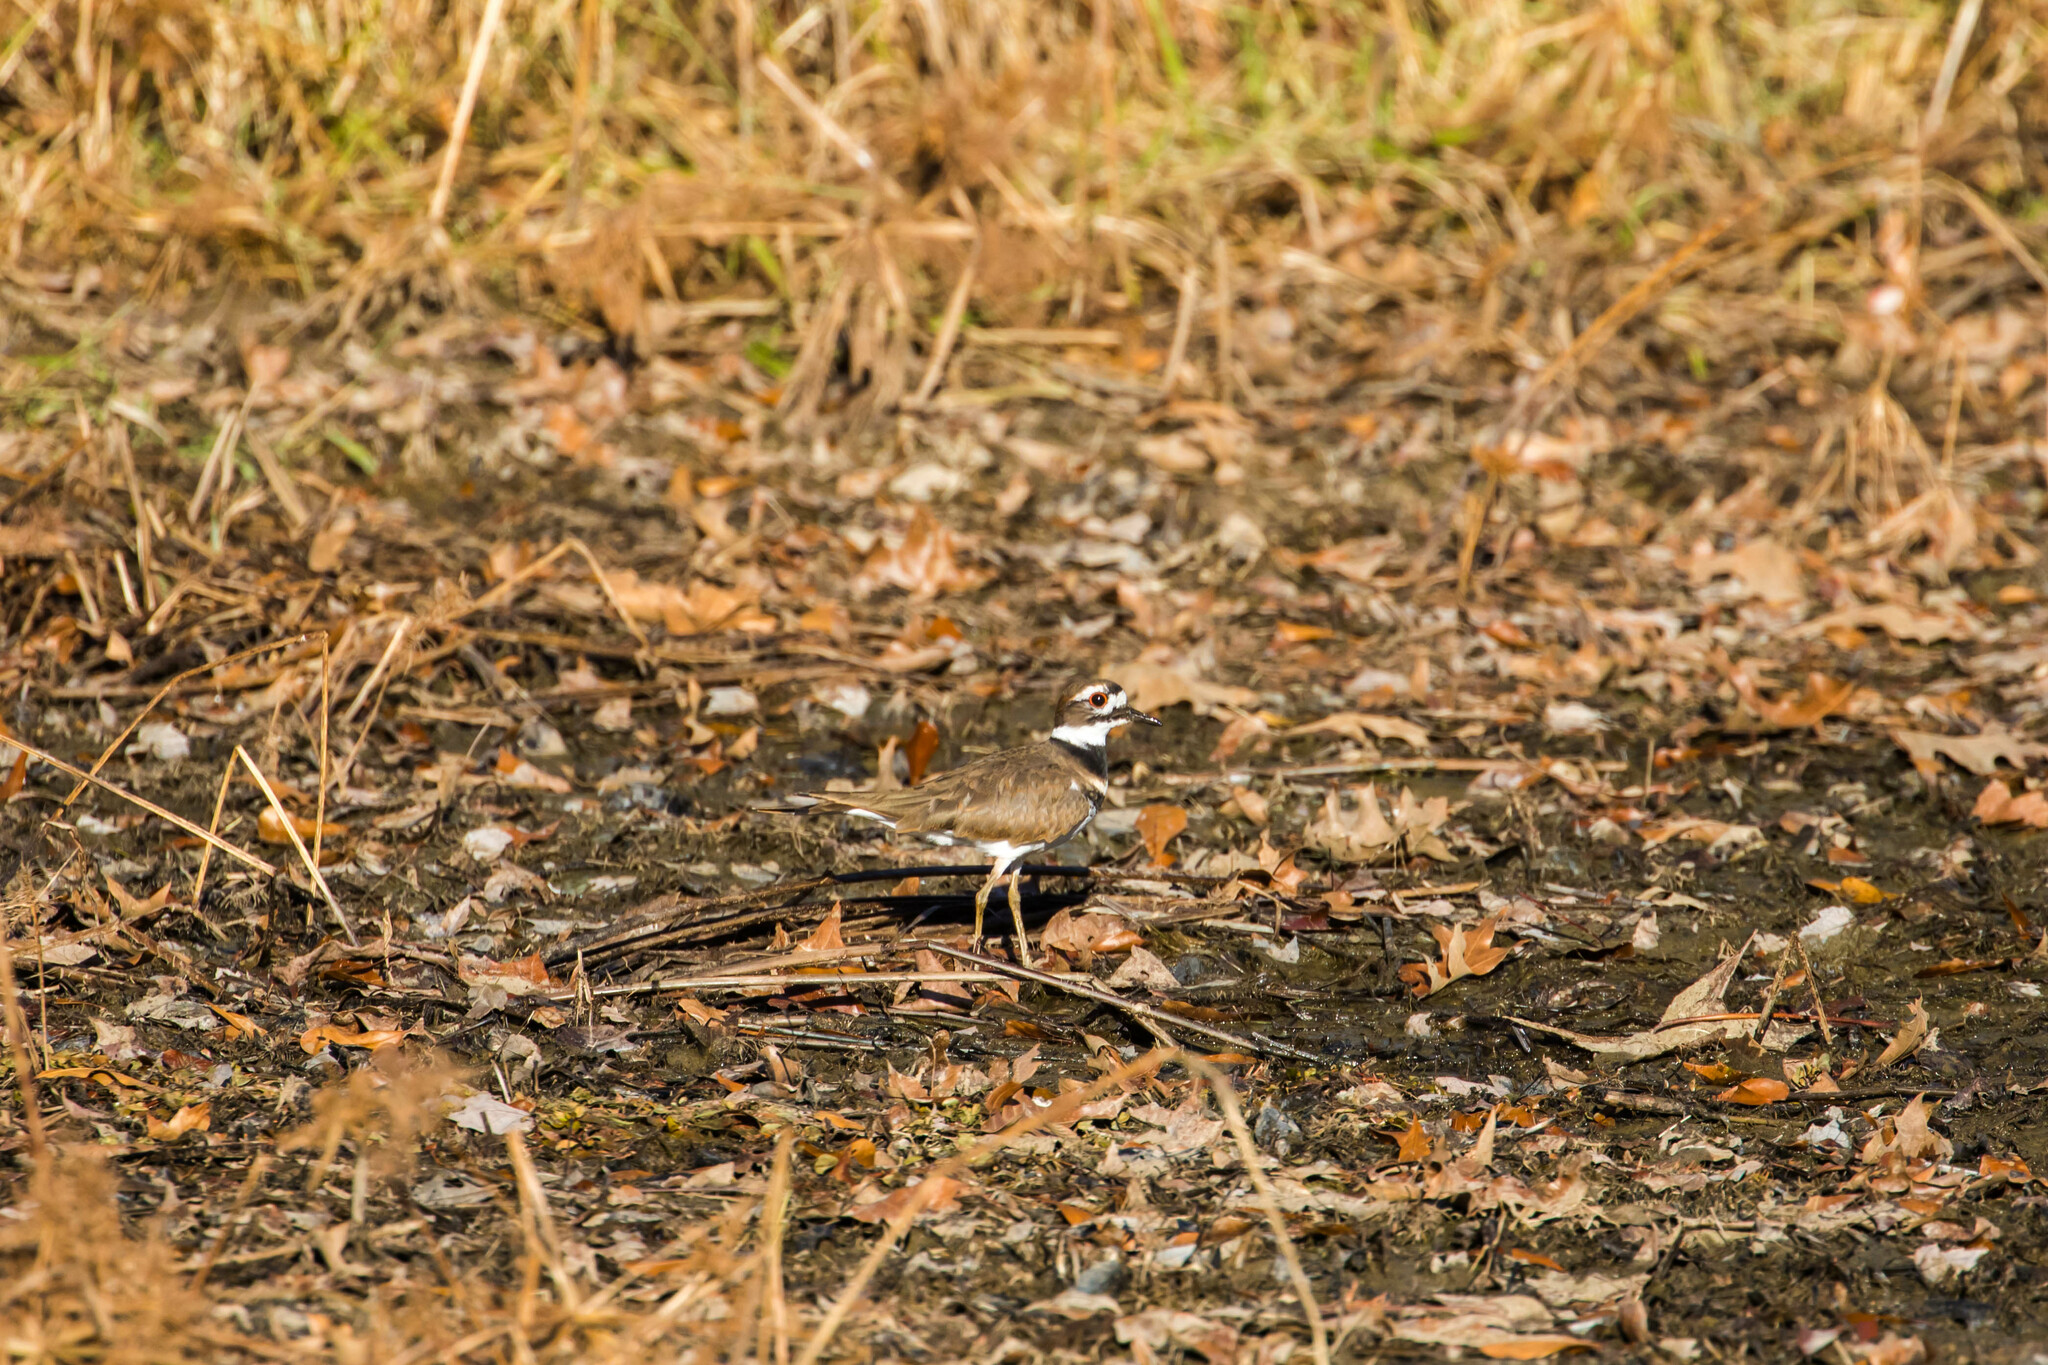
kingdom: Animalia
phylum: Chordata
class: Aves
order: Charadriiformes
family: Charadriidae
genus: Charadrius
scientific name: Charadrius vociferus
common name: Killdeer
